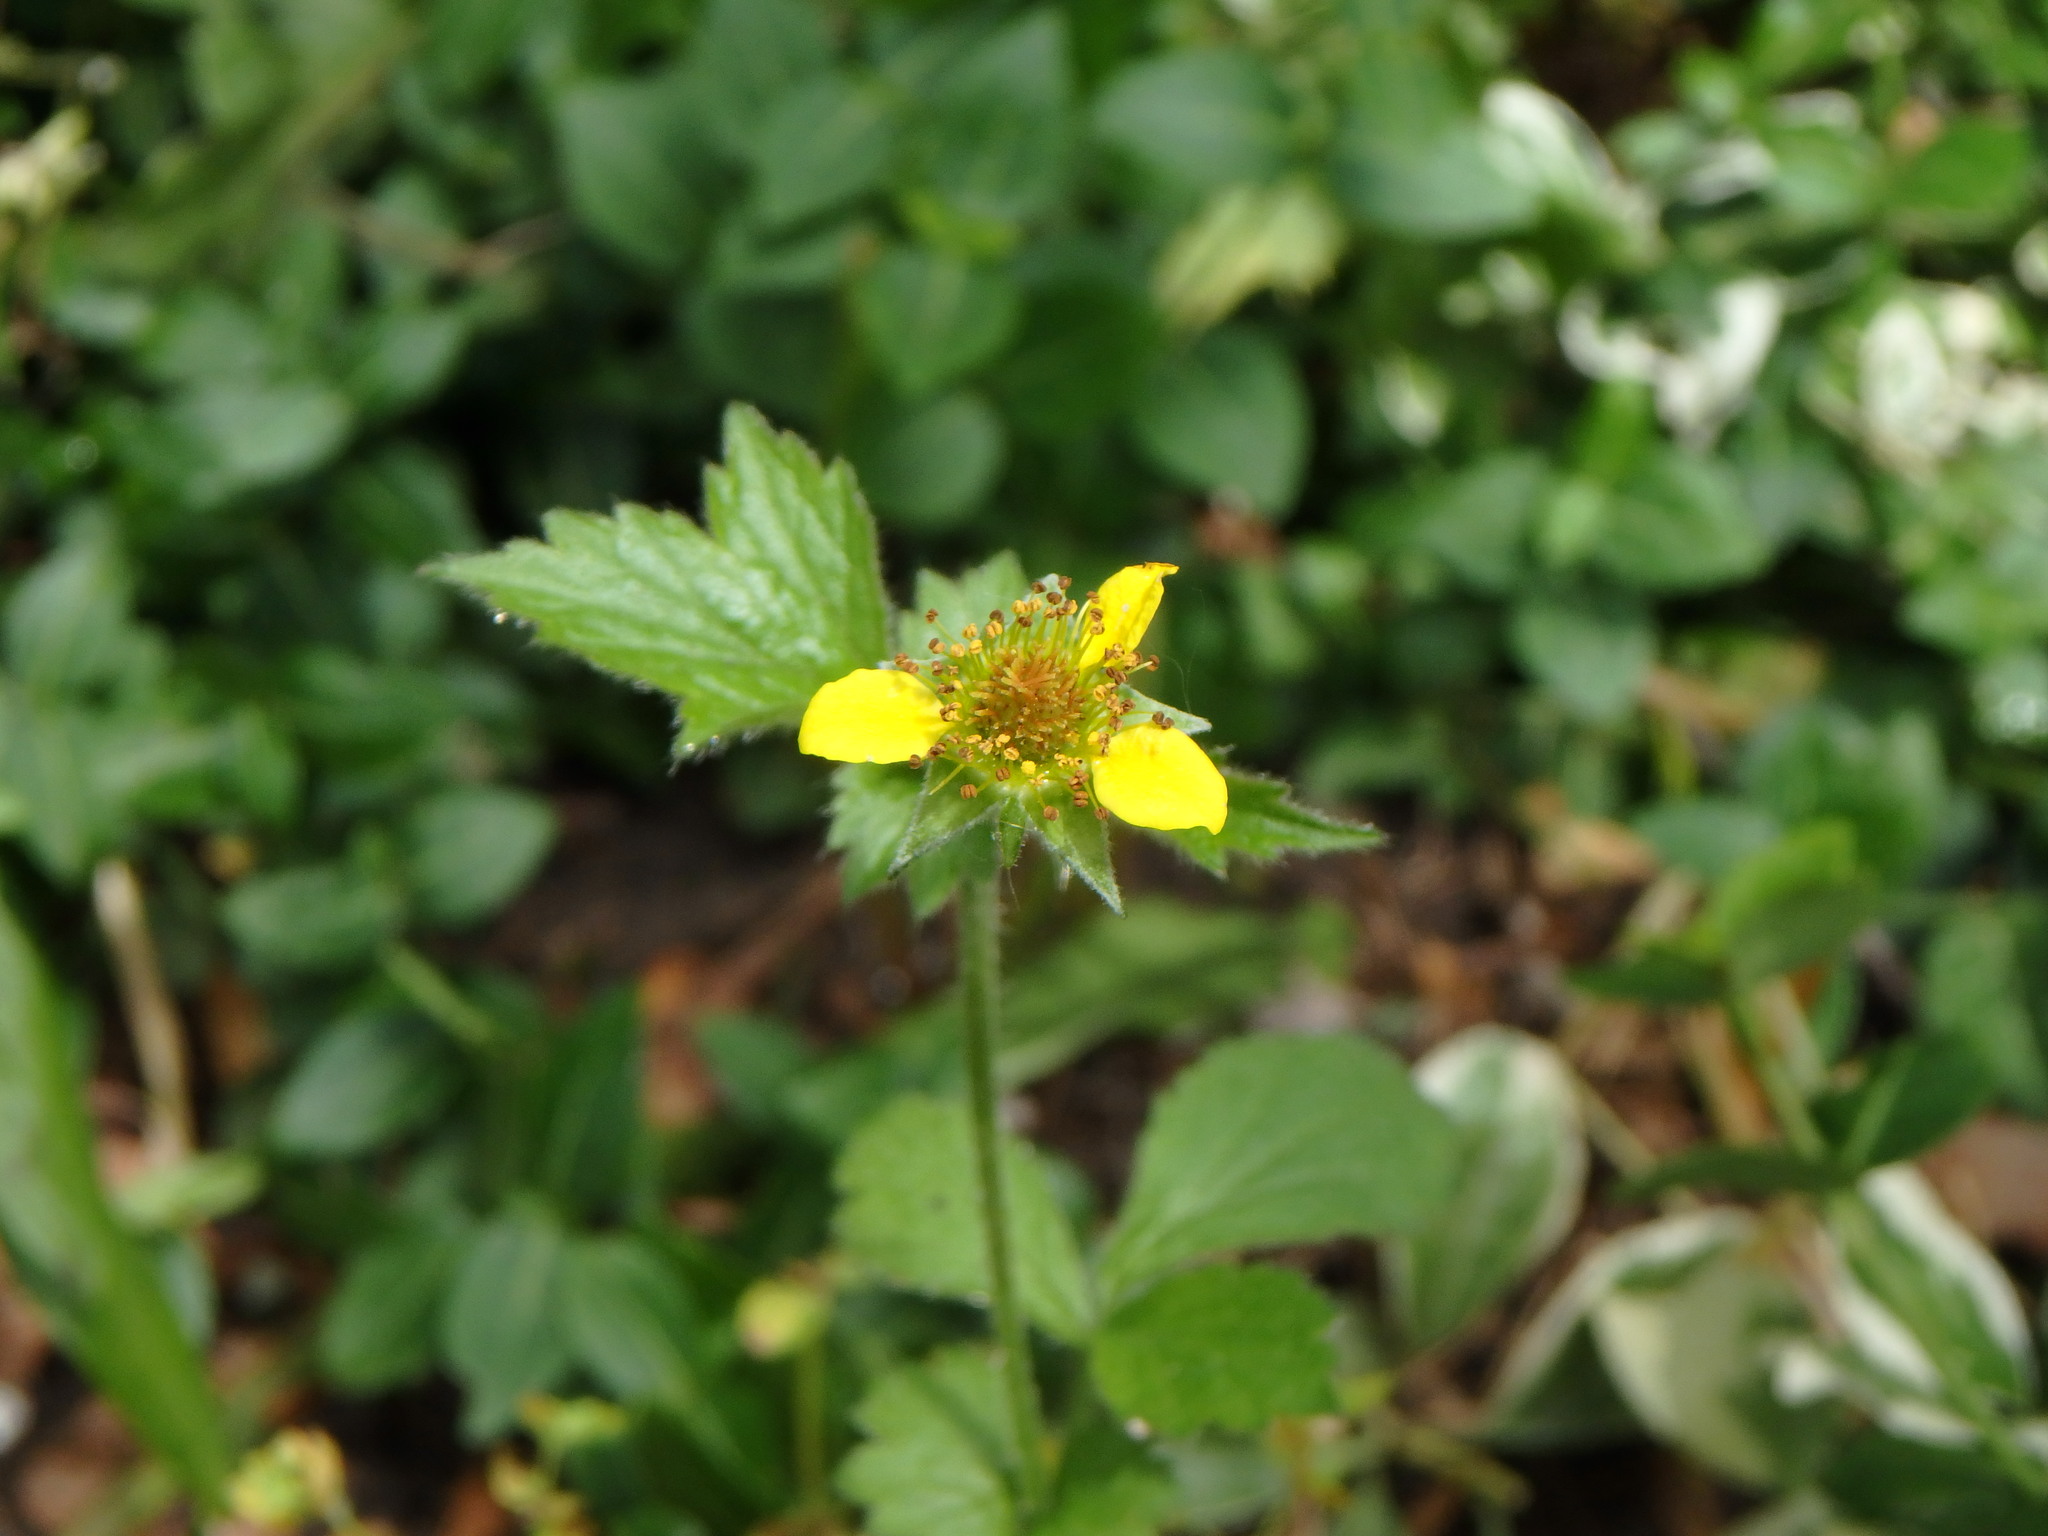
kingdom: Plantae
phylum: Tracheophyta
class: Magnoliopsida
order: Rosales
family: Rosaceae
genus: Geum
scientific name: Geum urbanum
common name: Wood avens
